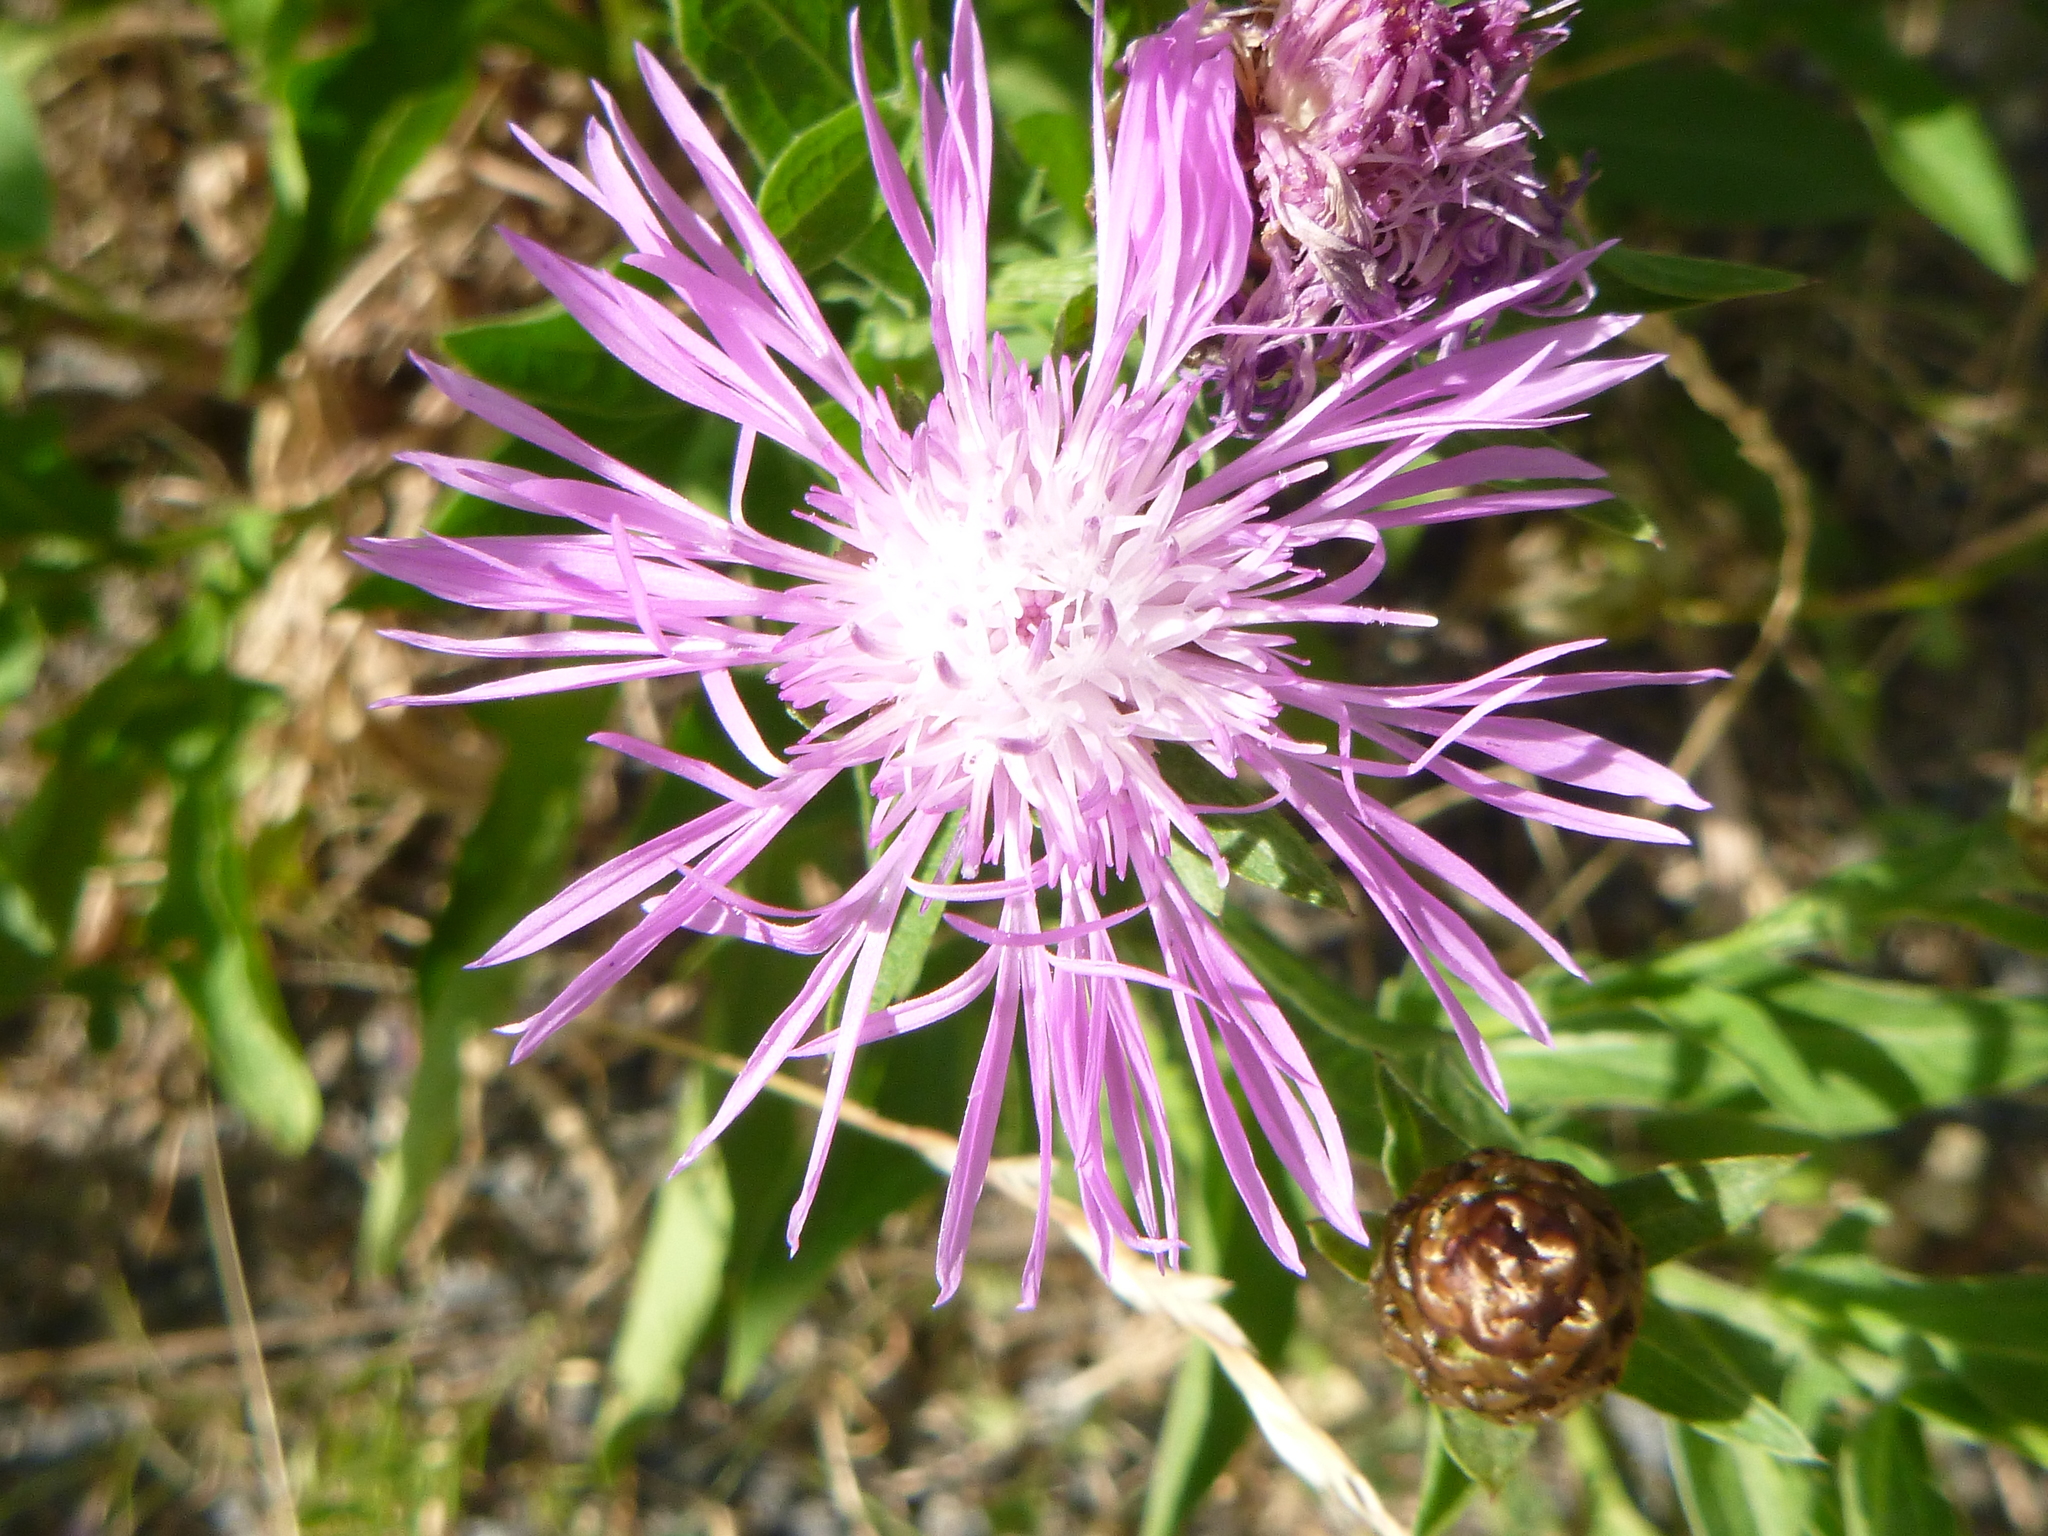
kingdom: Plantae
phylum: Tracheophyta
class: Magnoliopsida
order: Asterales
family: Asteraceae
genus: Centaurea
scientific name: Centaurea jacea
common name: Brown knapweed
